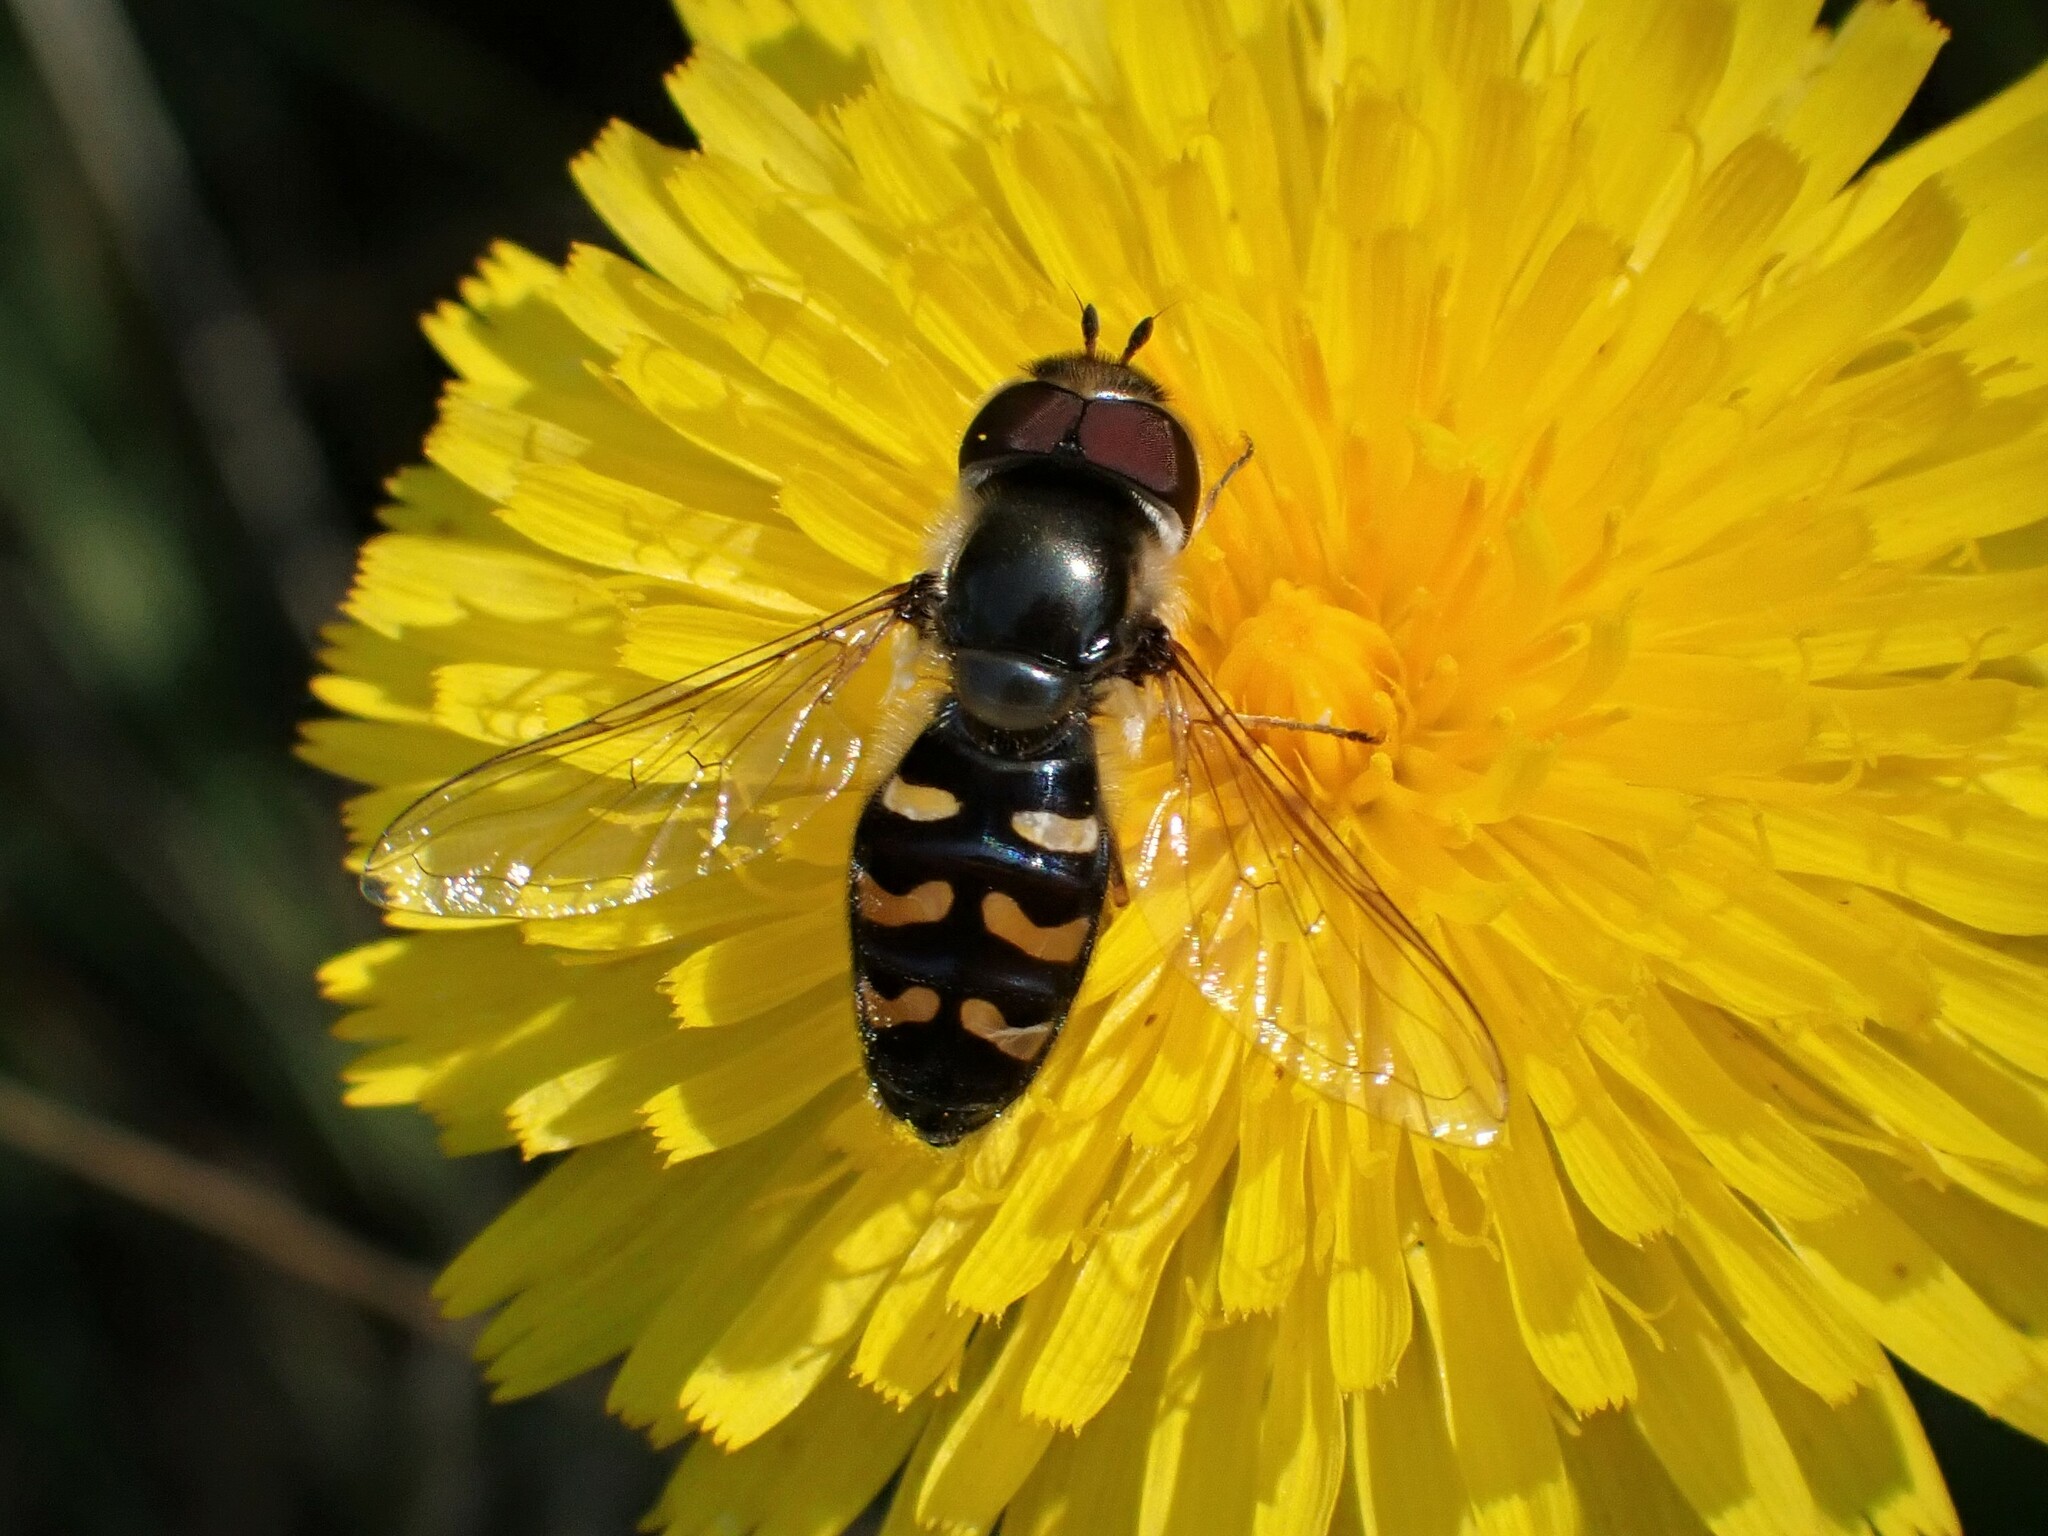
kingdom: Animalia
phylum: Arthropoda
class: Insecta
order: Diptera
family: Syrphidae
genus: Scaeva
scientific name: Scaeva affinis
